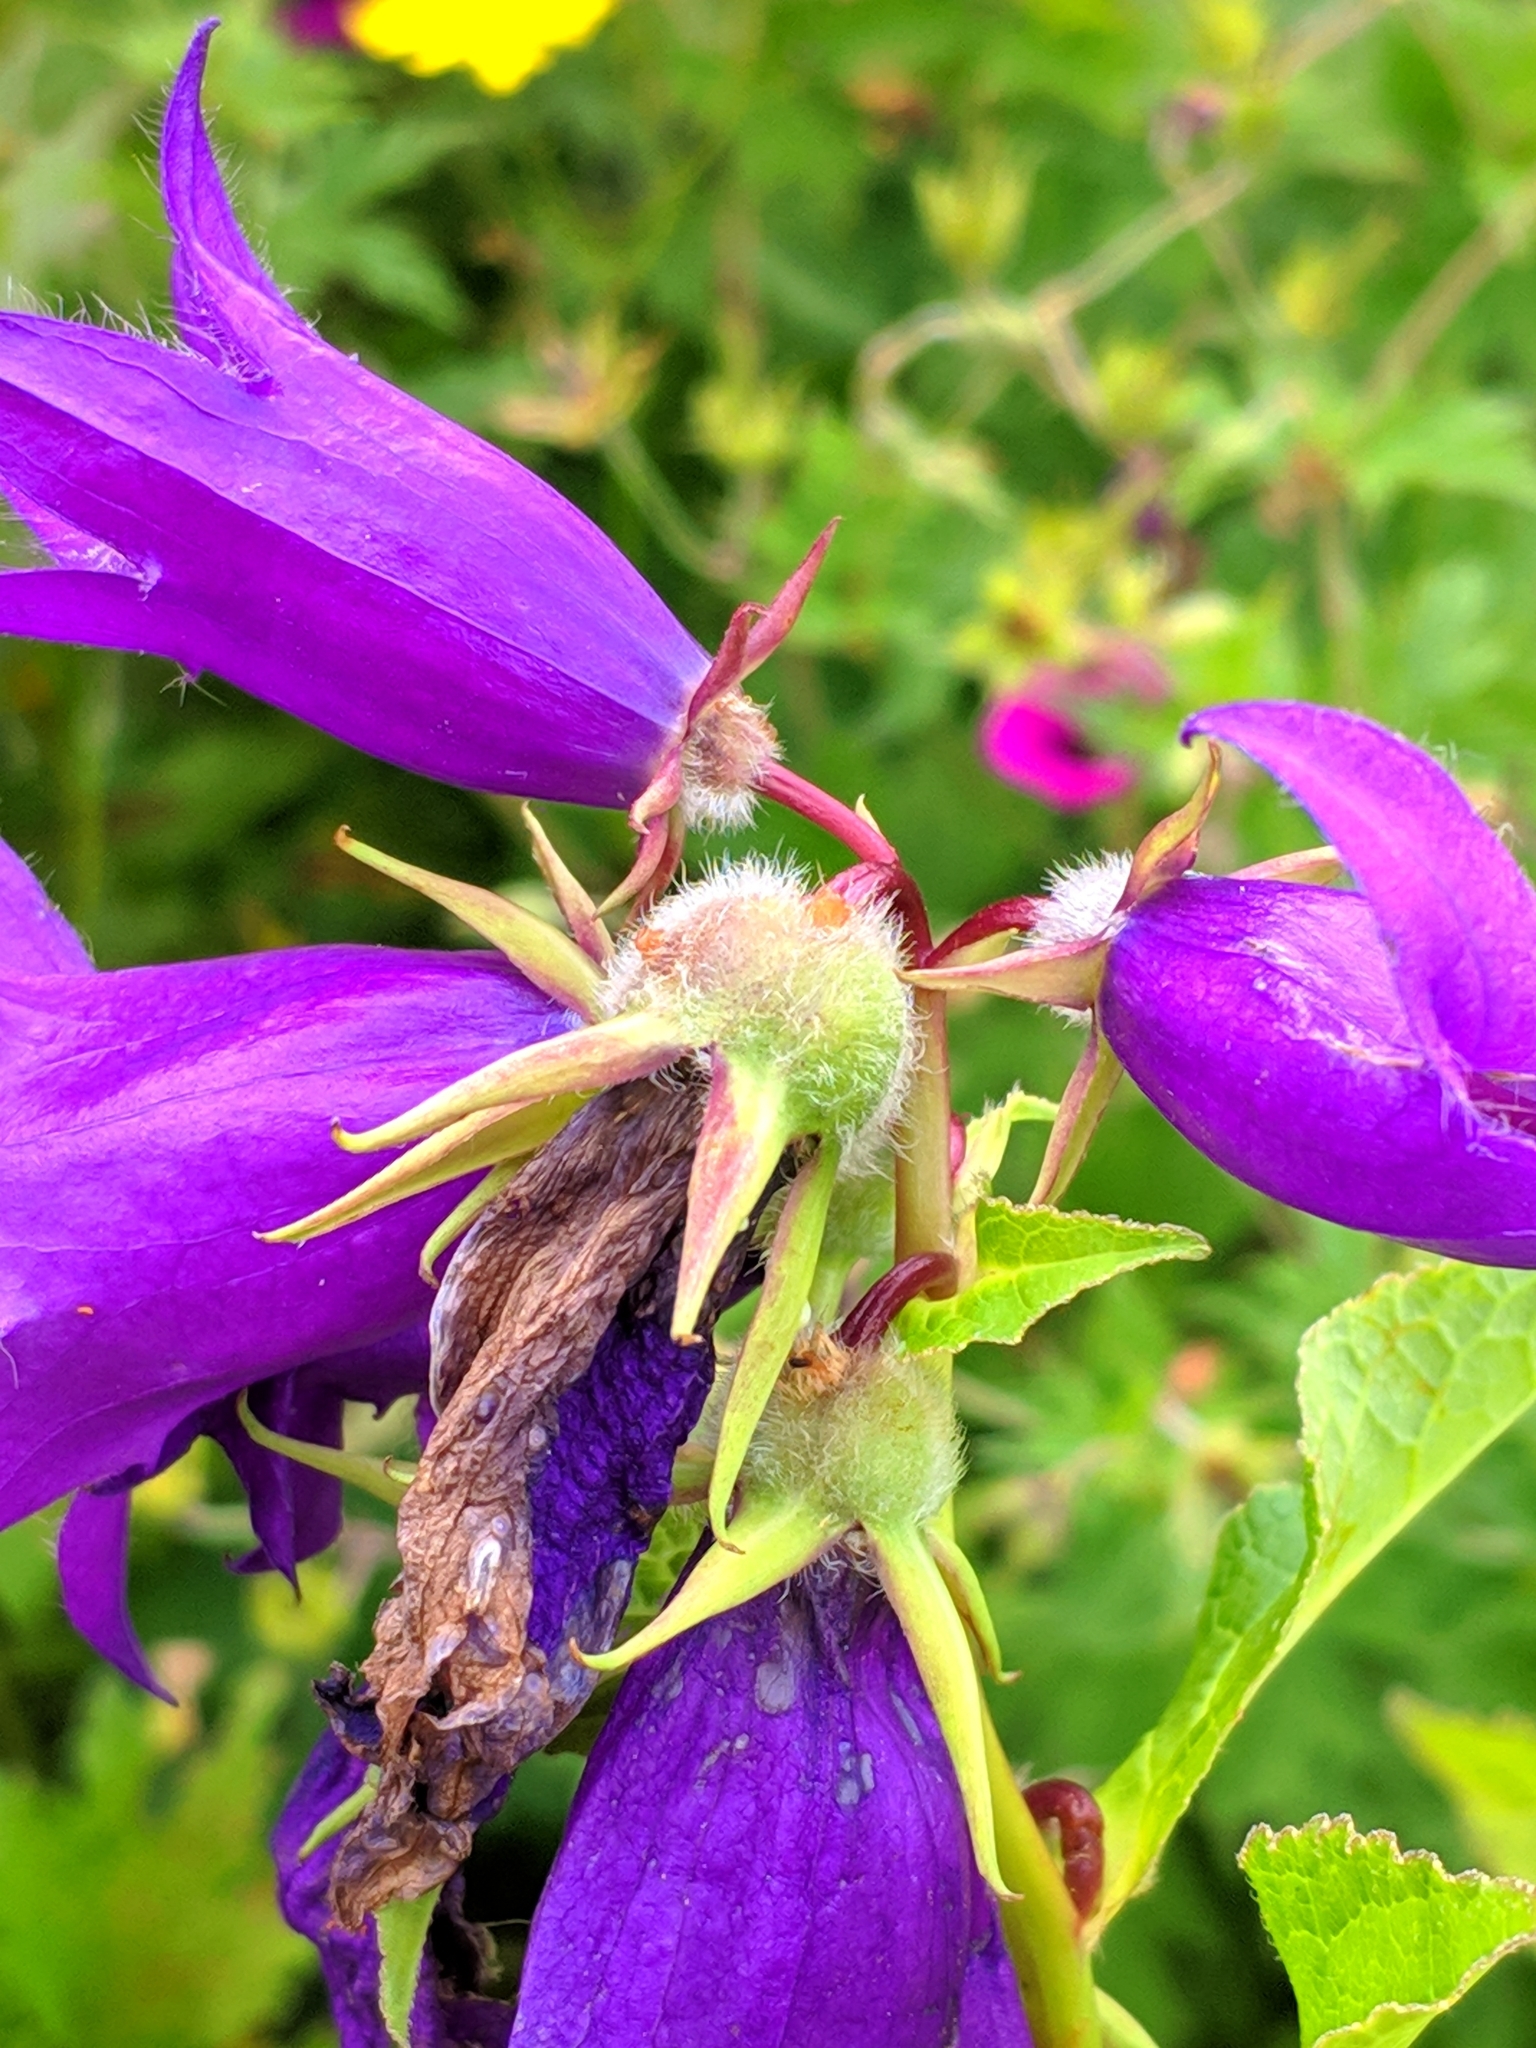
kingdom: Plantae
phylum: Tracheophyta
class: Magnoliopsida
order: Asterales
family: Campanulaceae
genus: Campanula
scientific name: Campanula latifolia
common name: Giant bellflower
